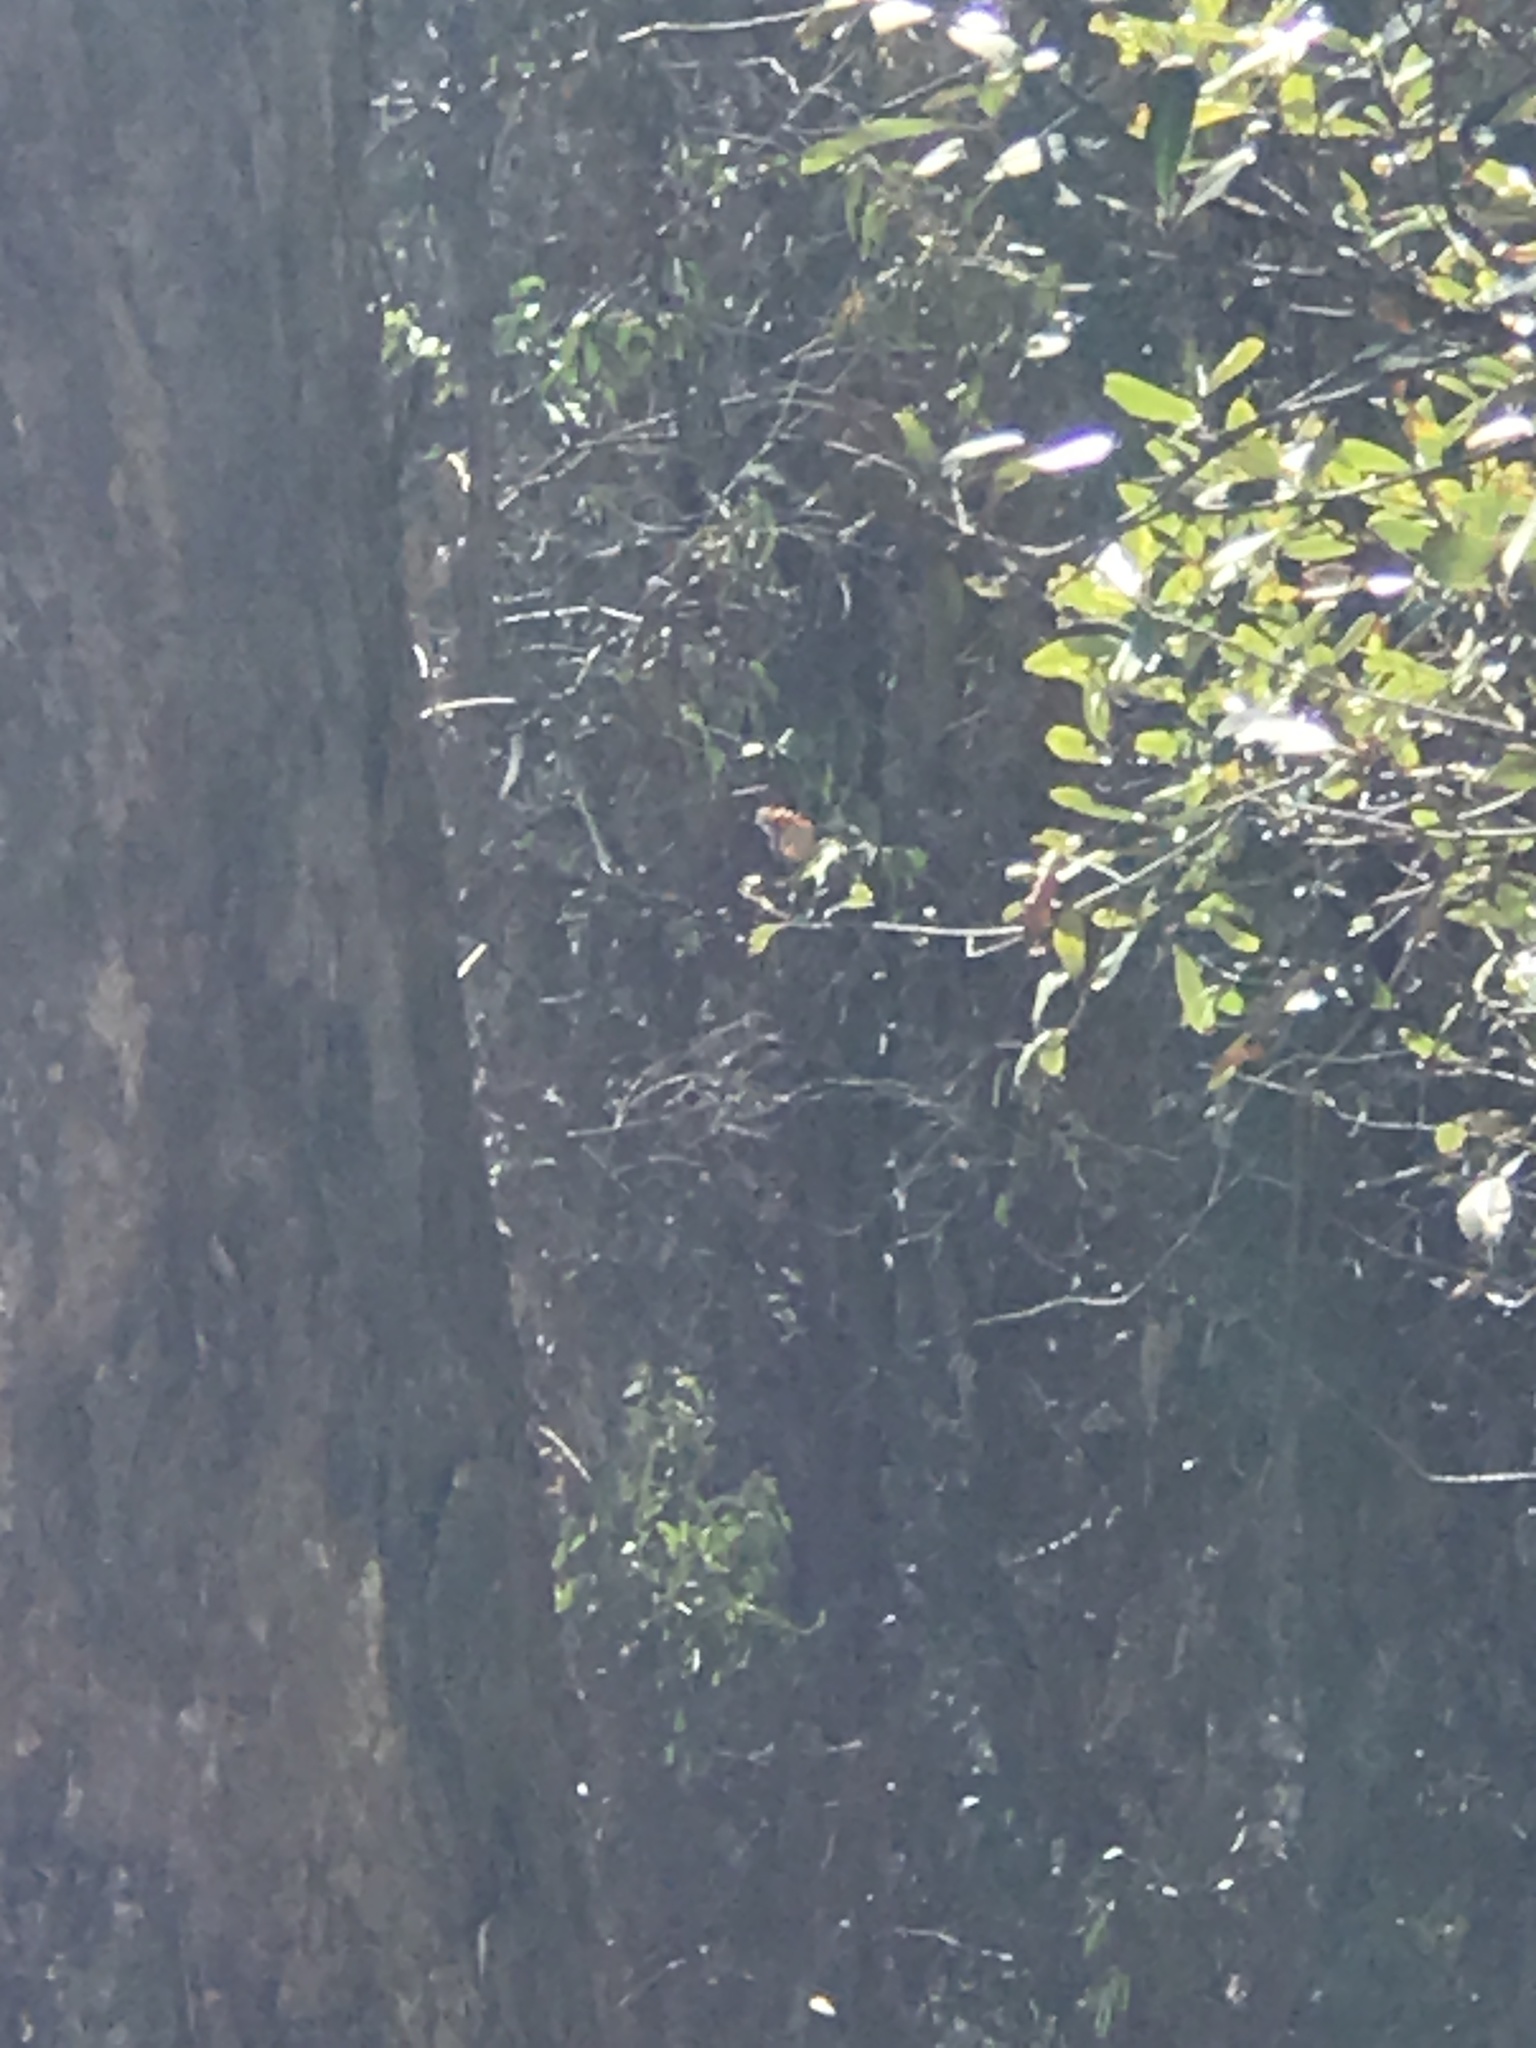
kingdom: Animalia
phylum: Arthropoda
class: Insecta
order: Lepidoptera
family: Nymphalidae
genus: Danaus
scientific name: Danaus plexippus
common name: Monarch
